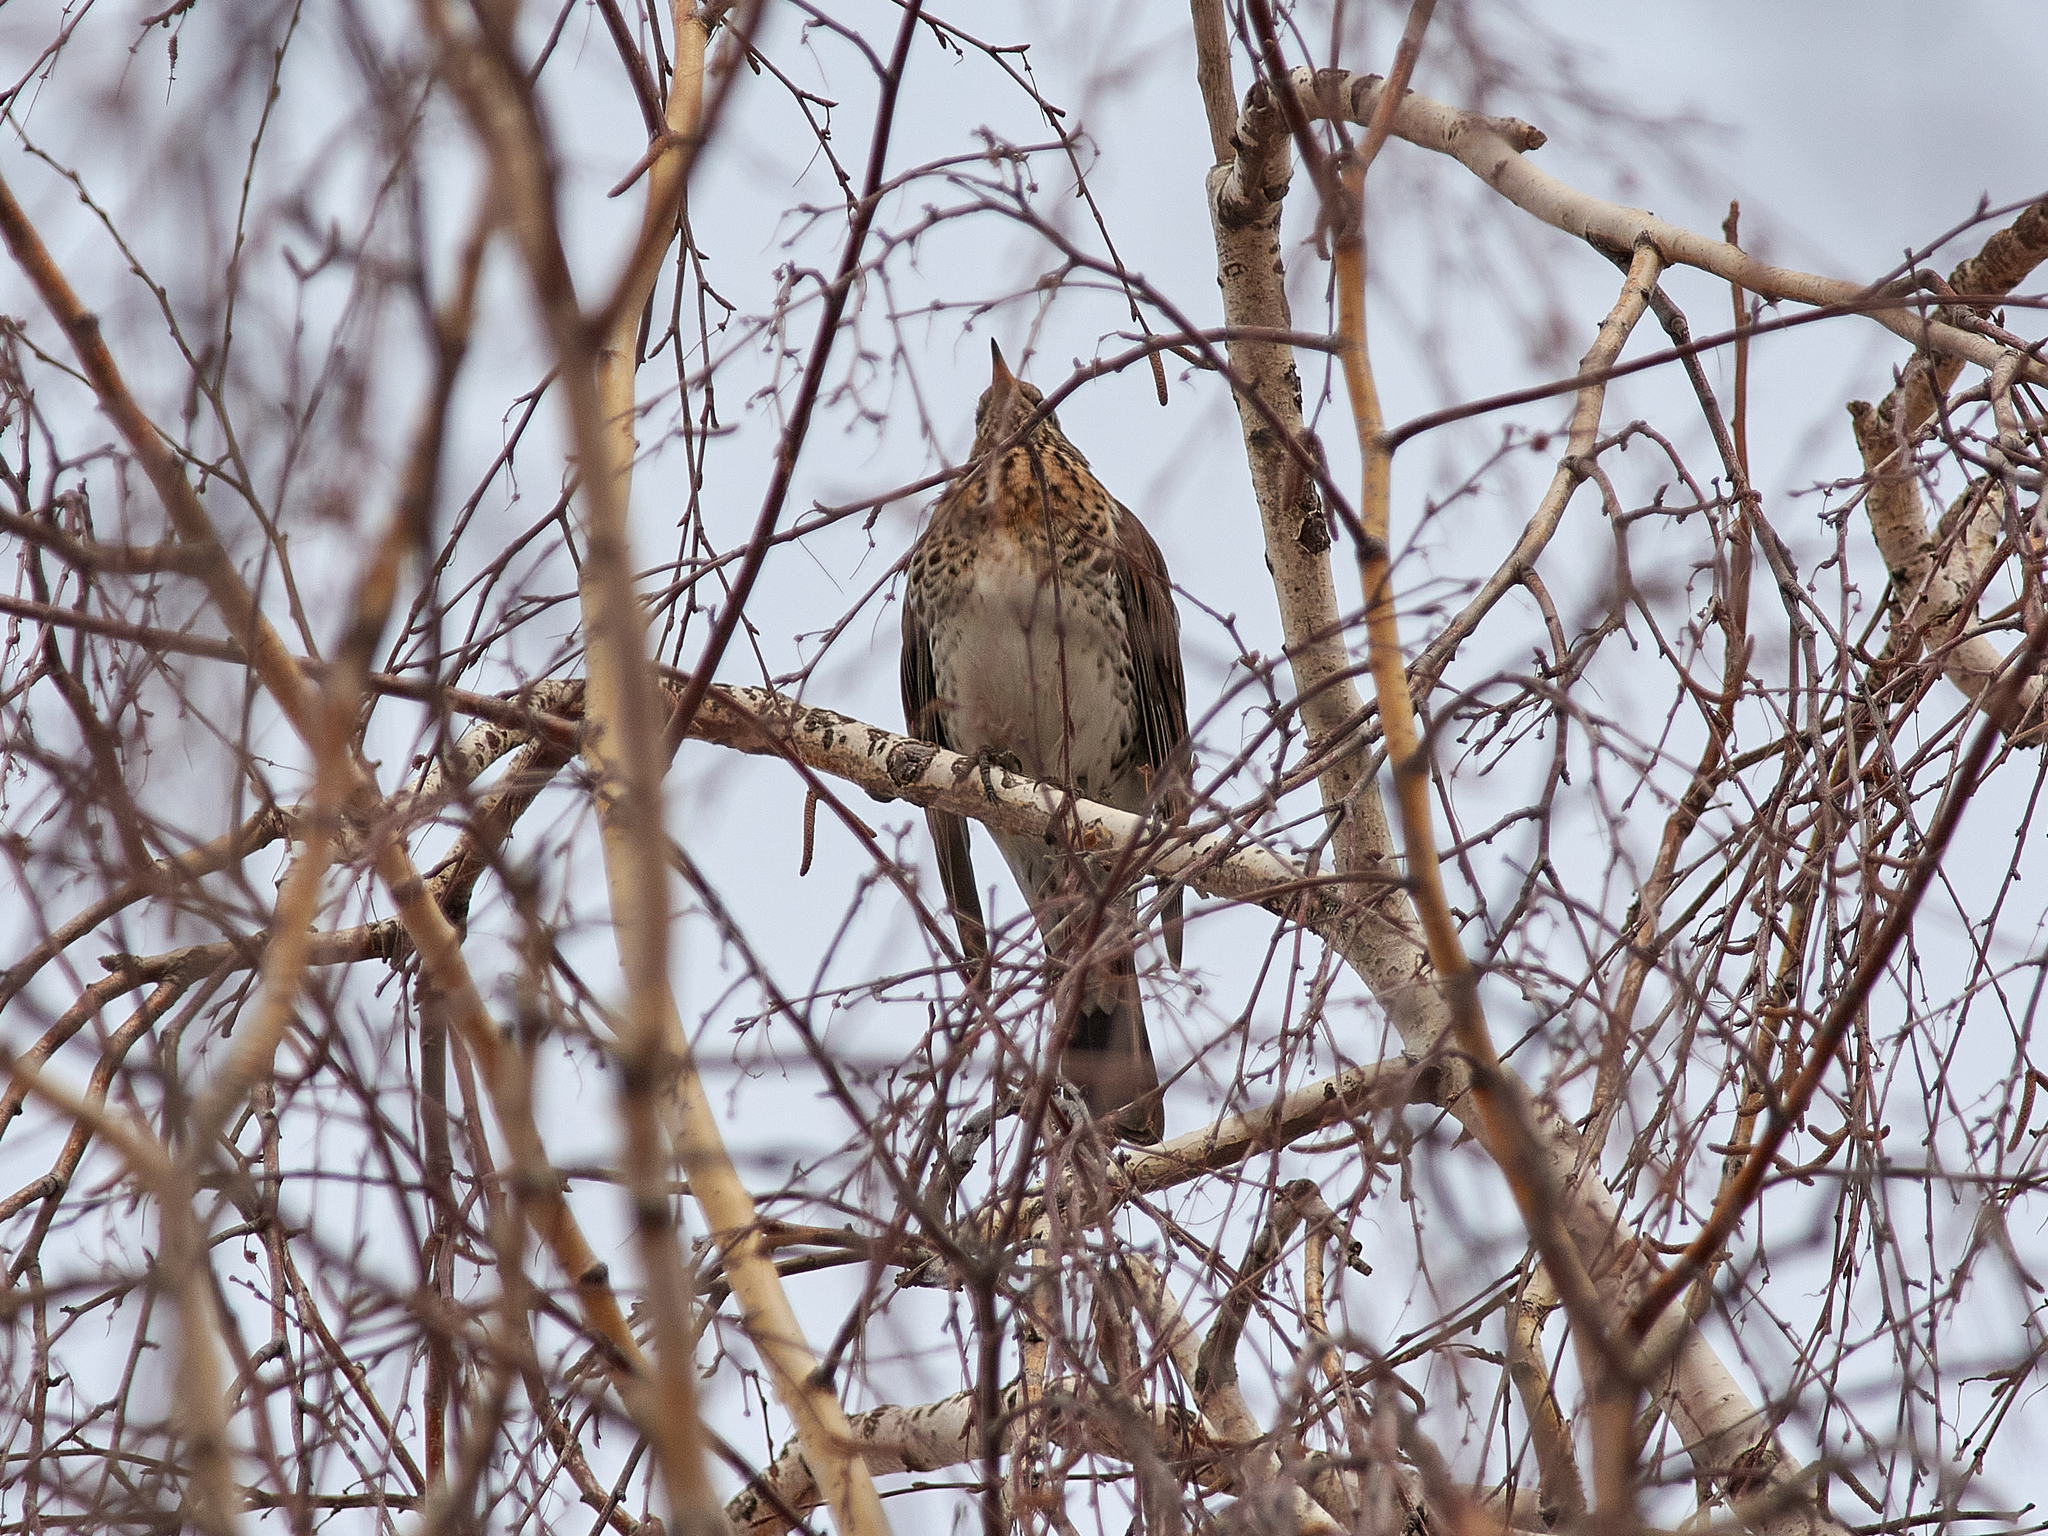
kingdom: Animalia
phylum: Chordata
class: Aves
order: Passeriformes
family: Turdidae
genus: Turdus
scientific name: Turdus pilaris
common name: Fieldfare
